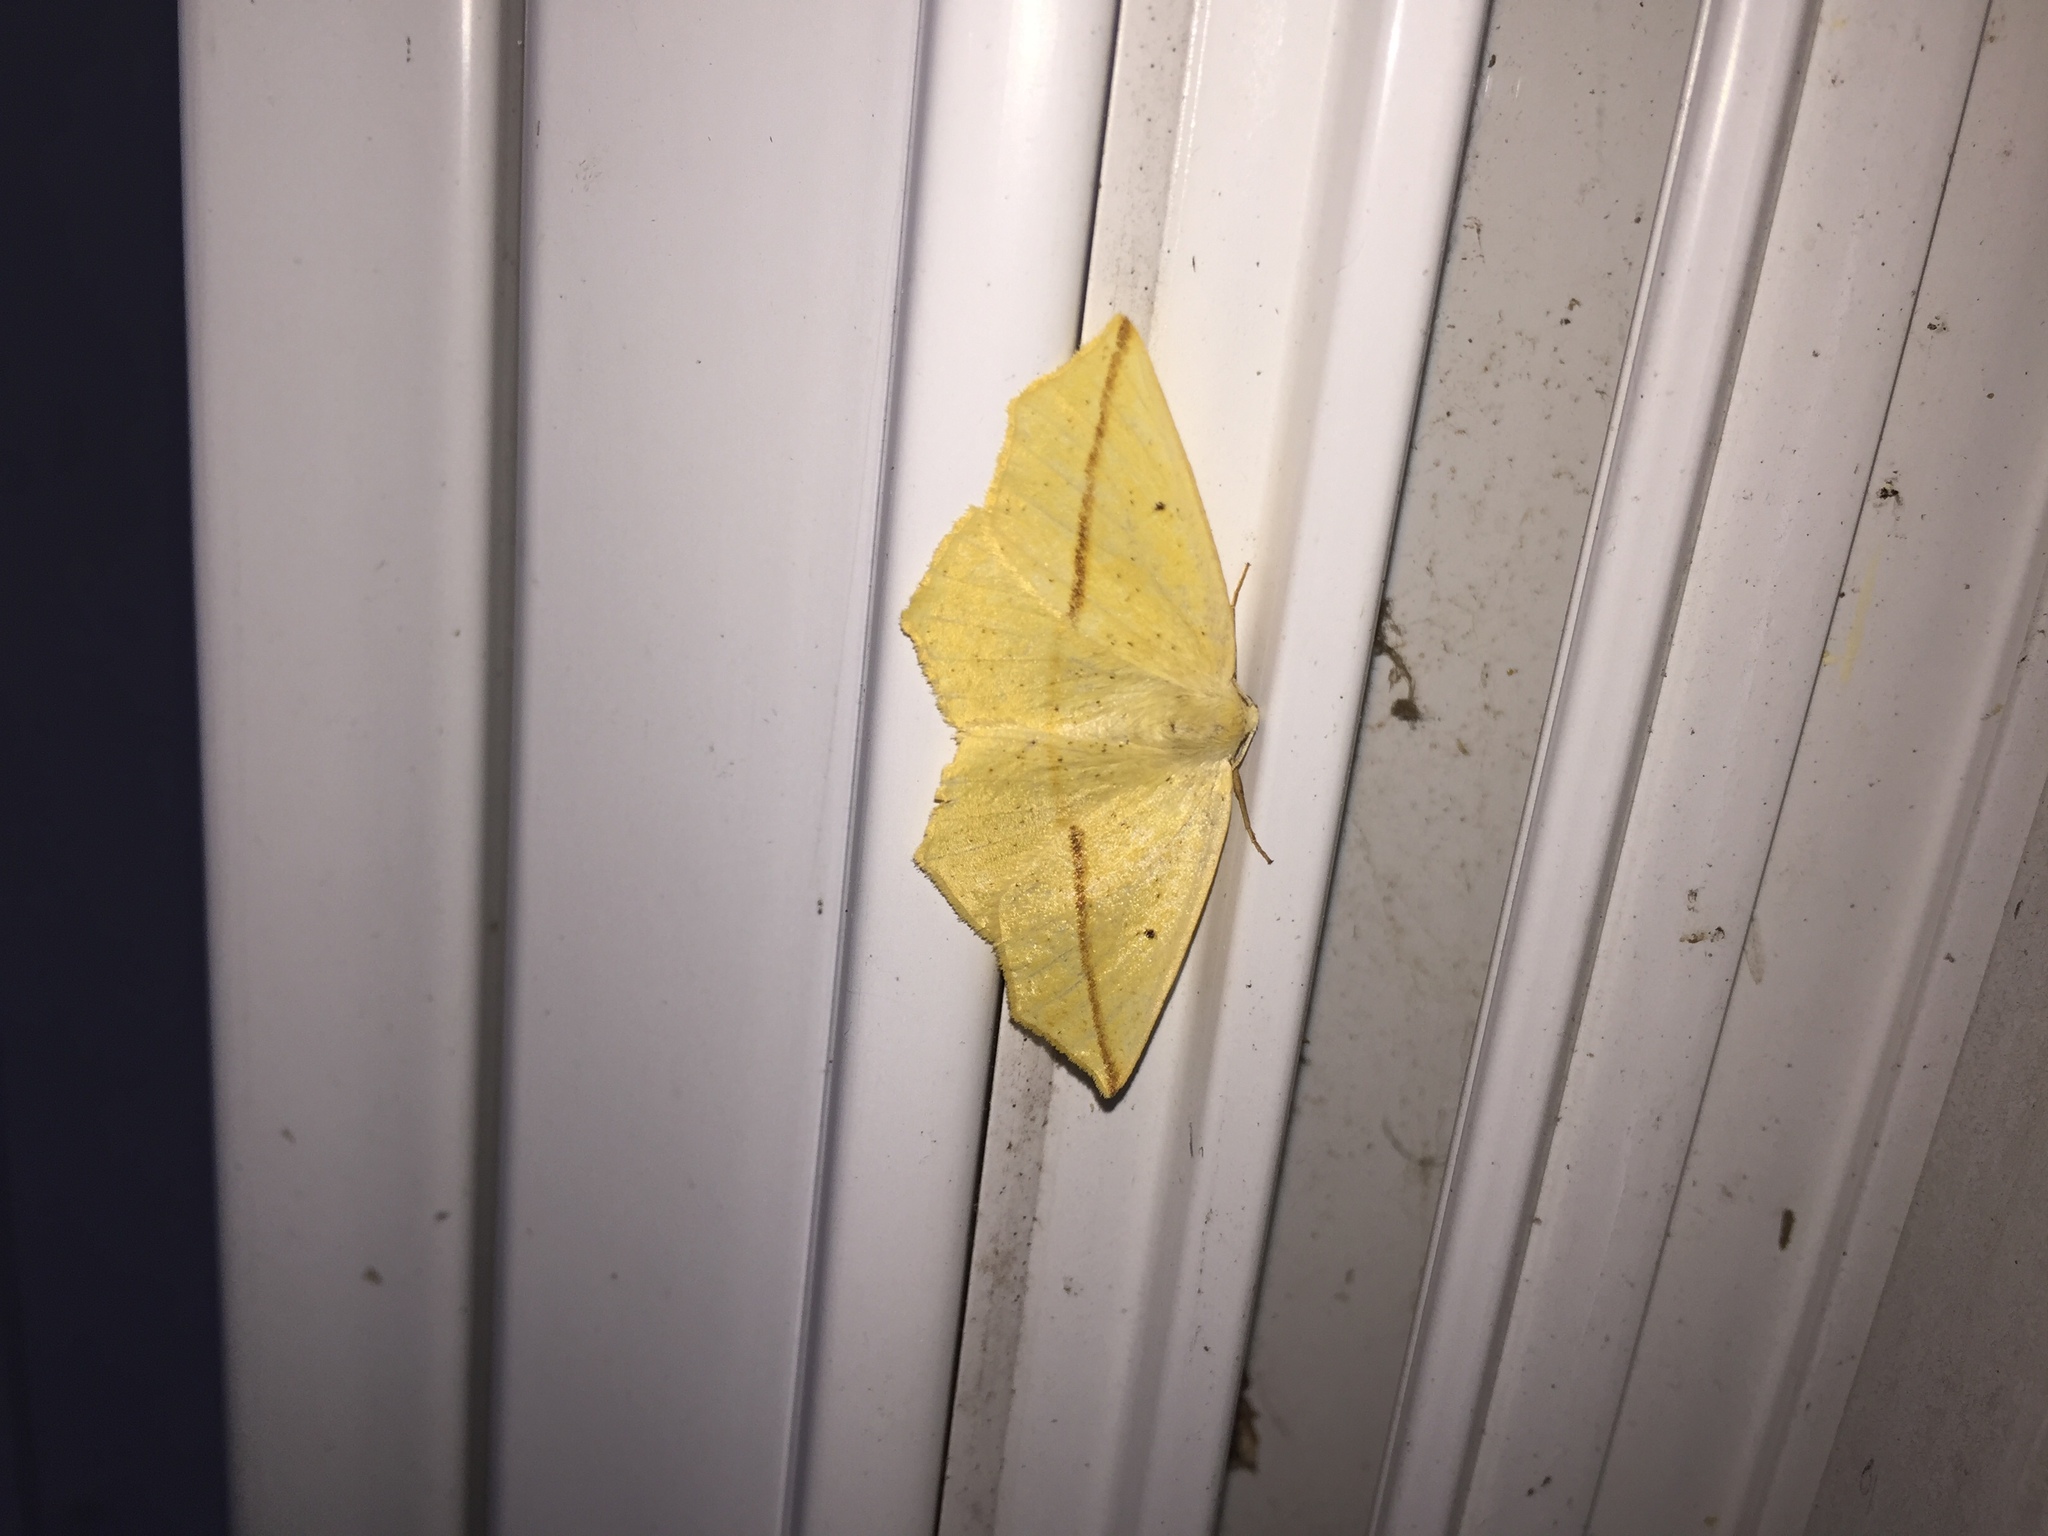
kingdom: Animalia
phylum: Arthropoda
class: Insecta
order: Lepidoptera
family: Geometridae
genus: Tetracis
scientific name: Tetracis crocallata
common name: Yellow slant-line
